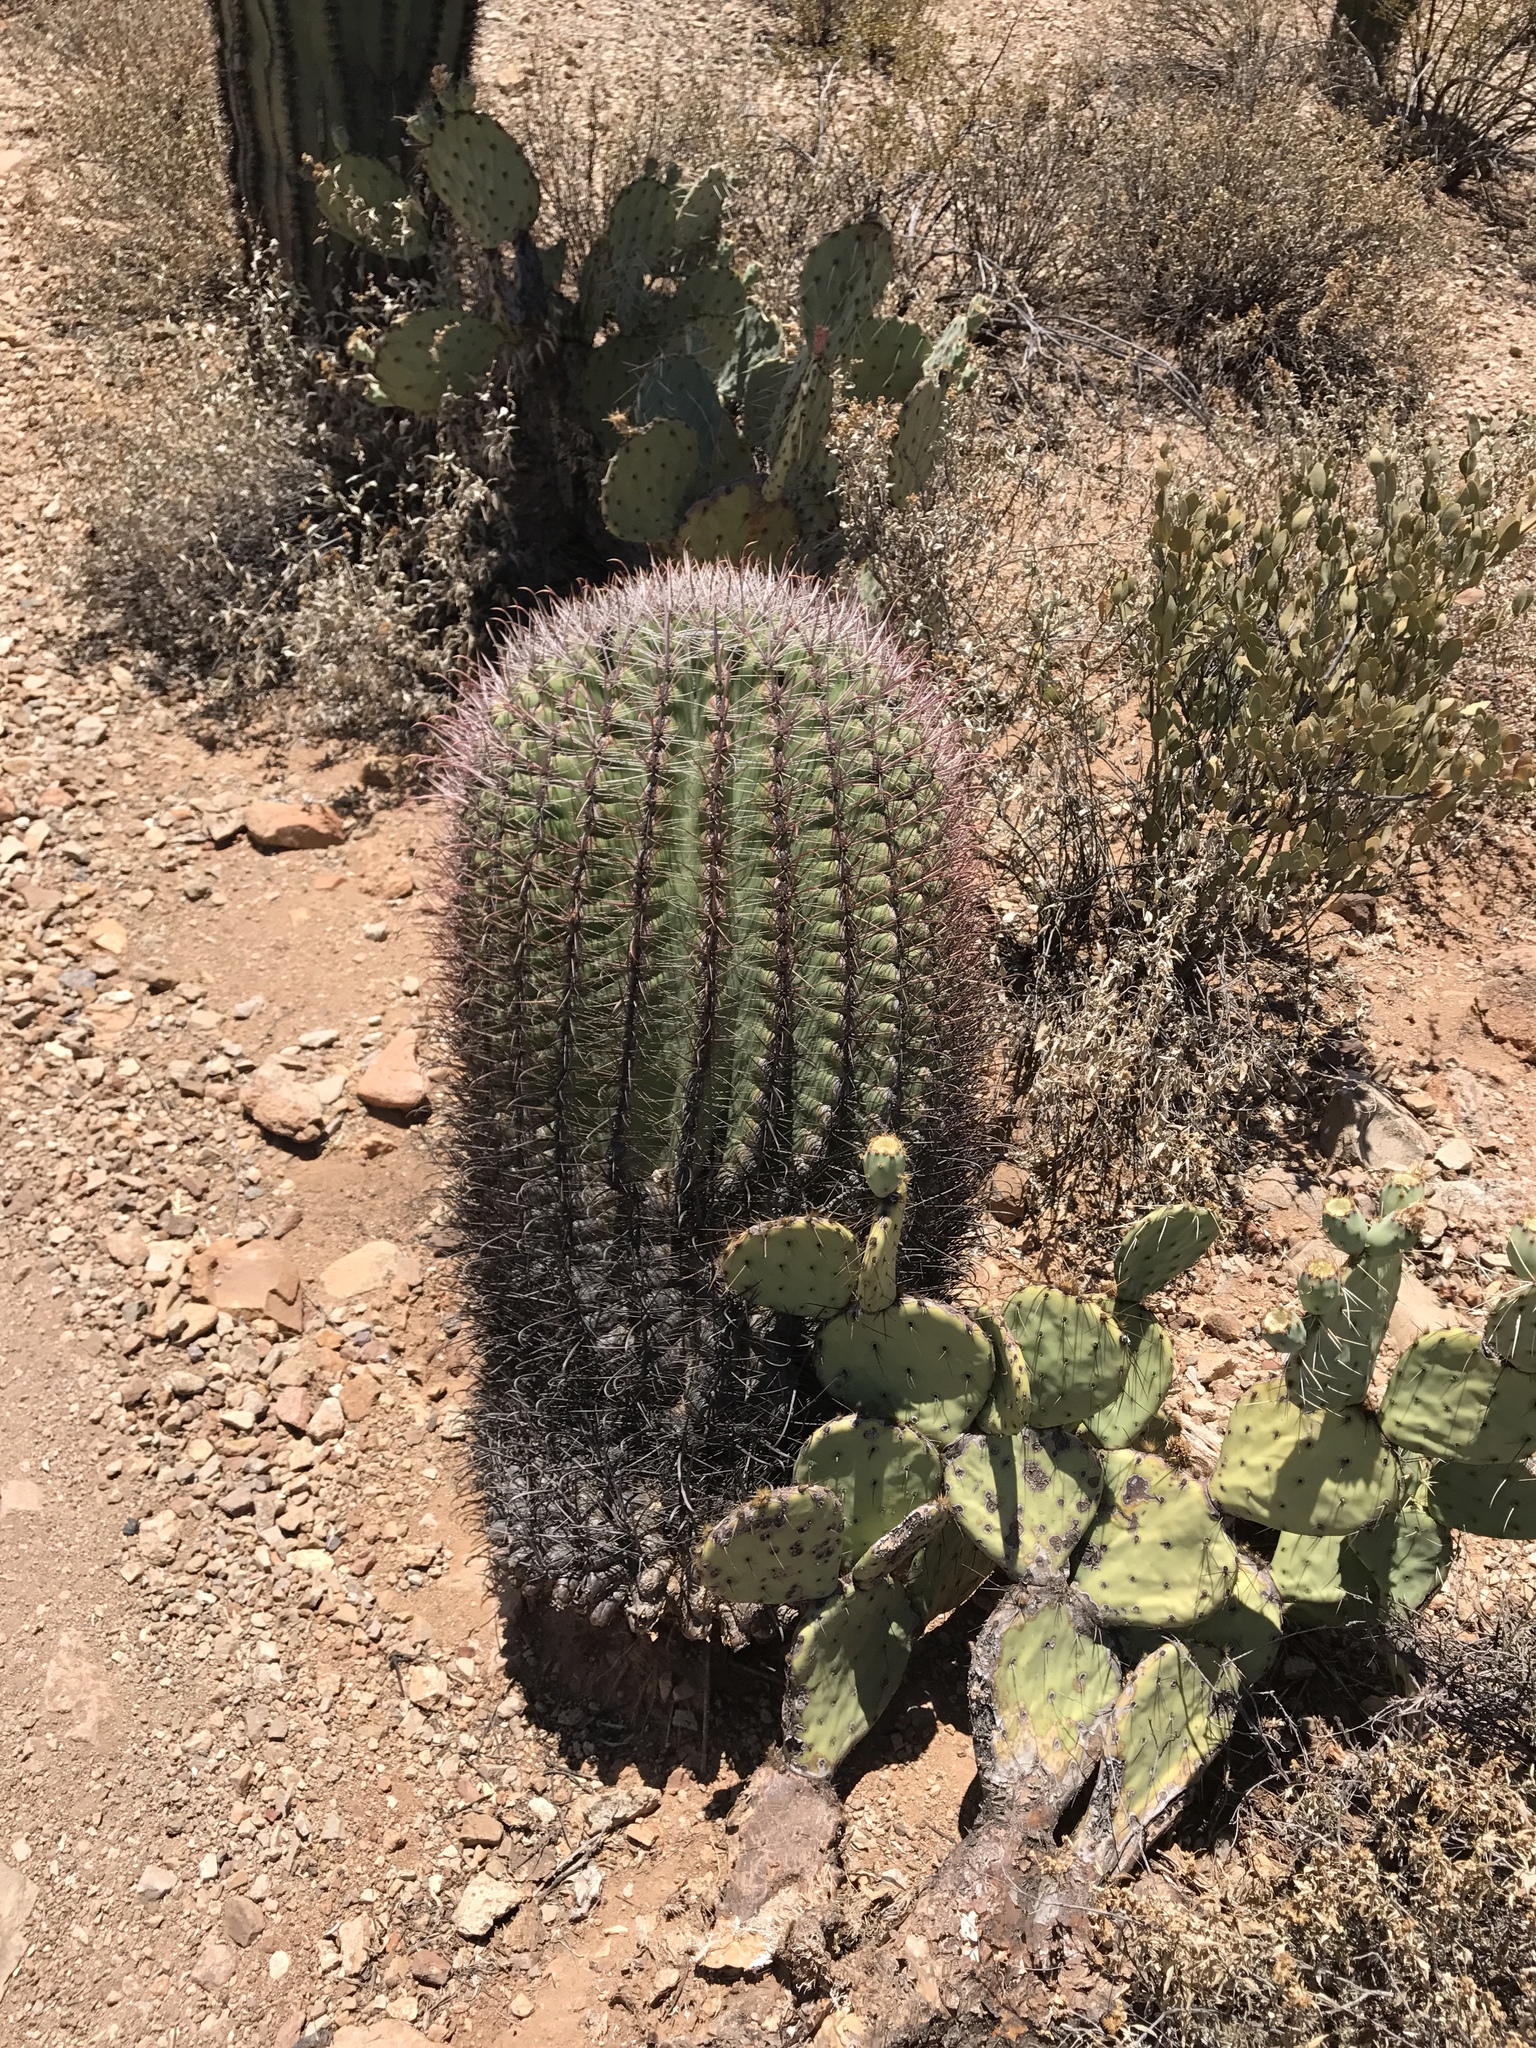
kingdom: Plantae
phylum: Tracheophyta
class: Magnoliopsida
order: Caryophyllales
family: Cactaceae
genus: Ferocactus
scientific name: Ferocactus wislizeni
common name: Candy barrel cactus
